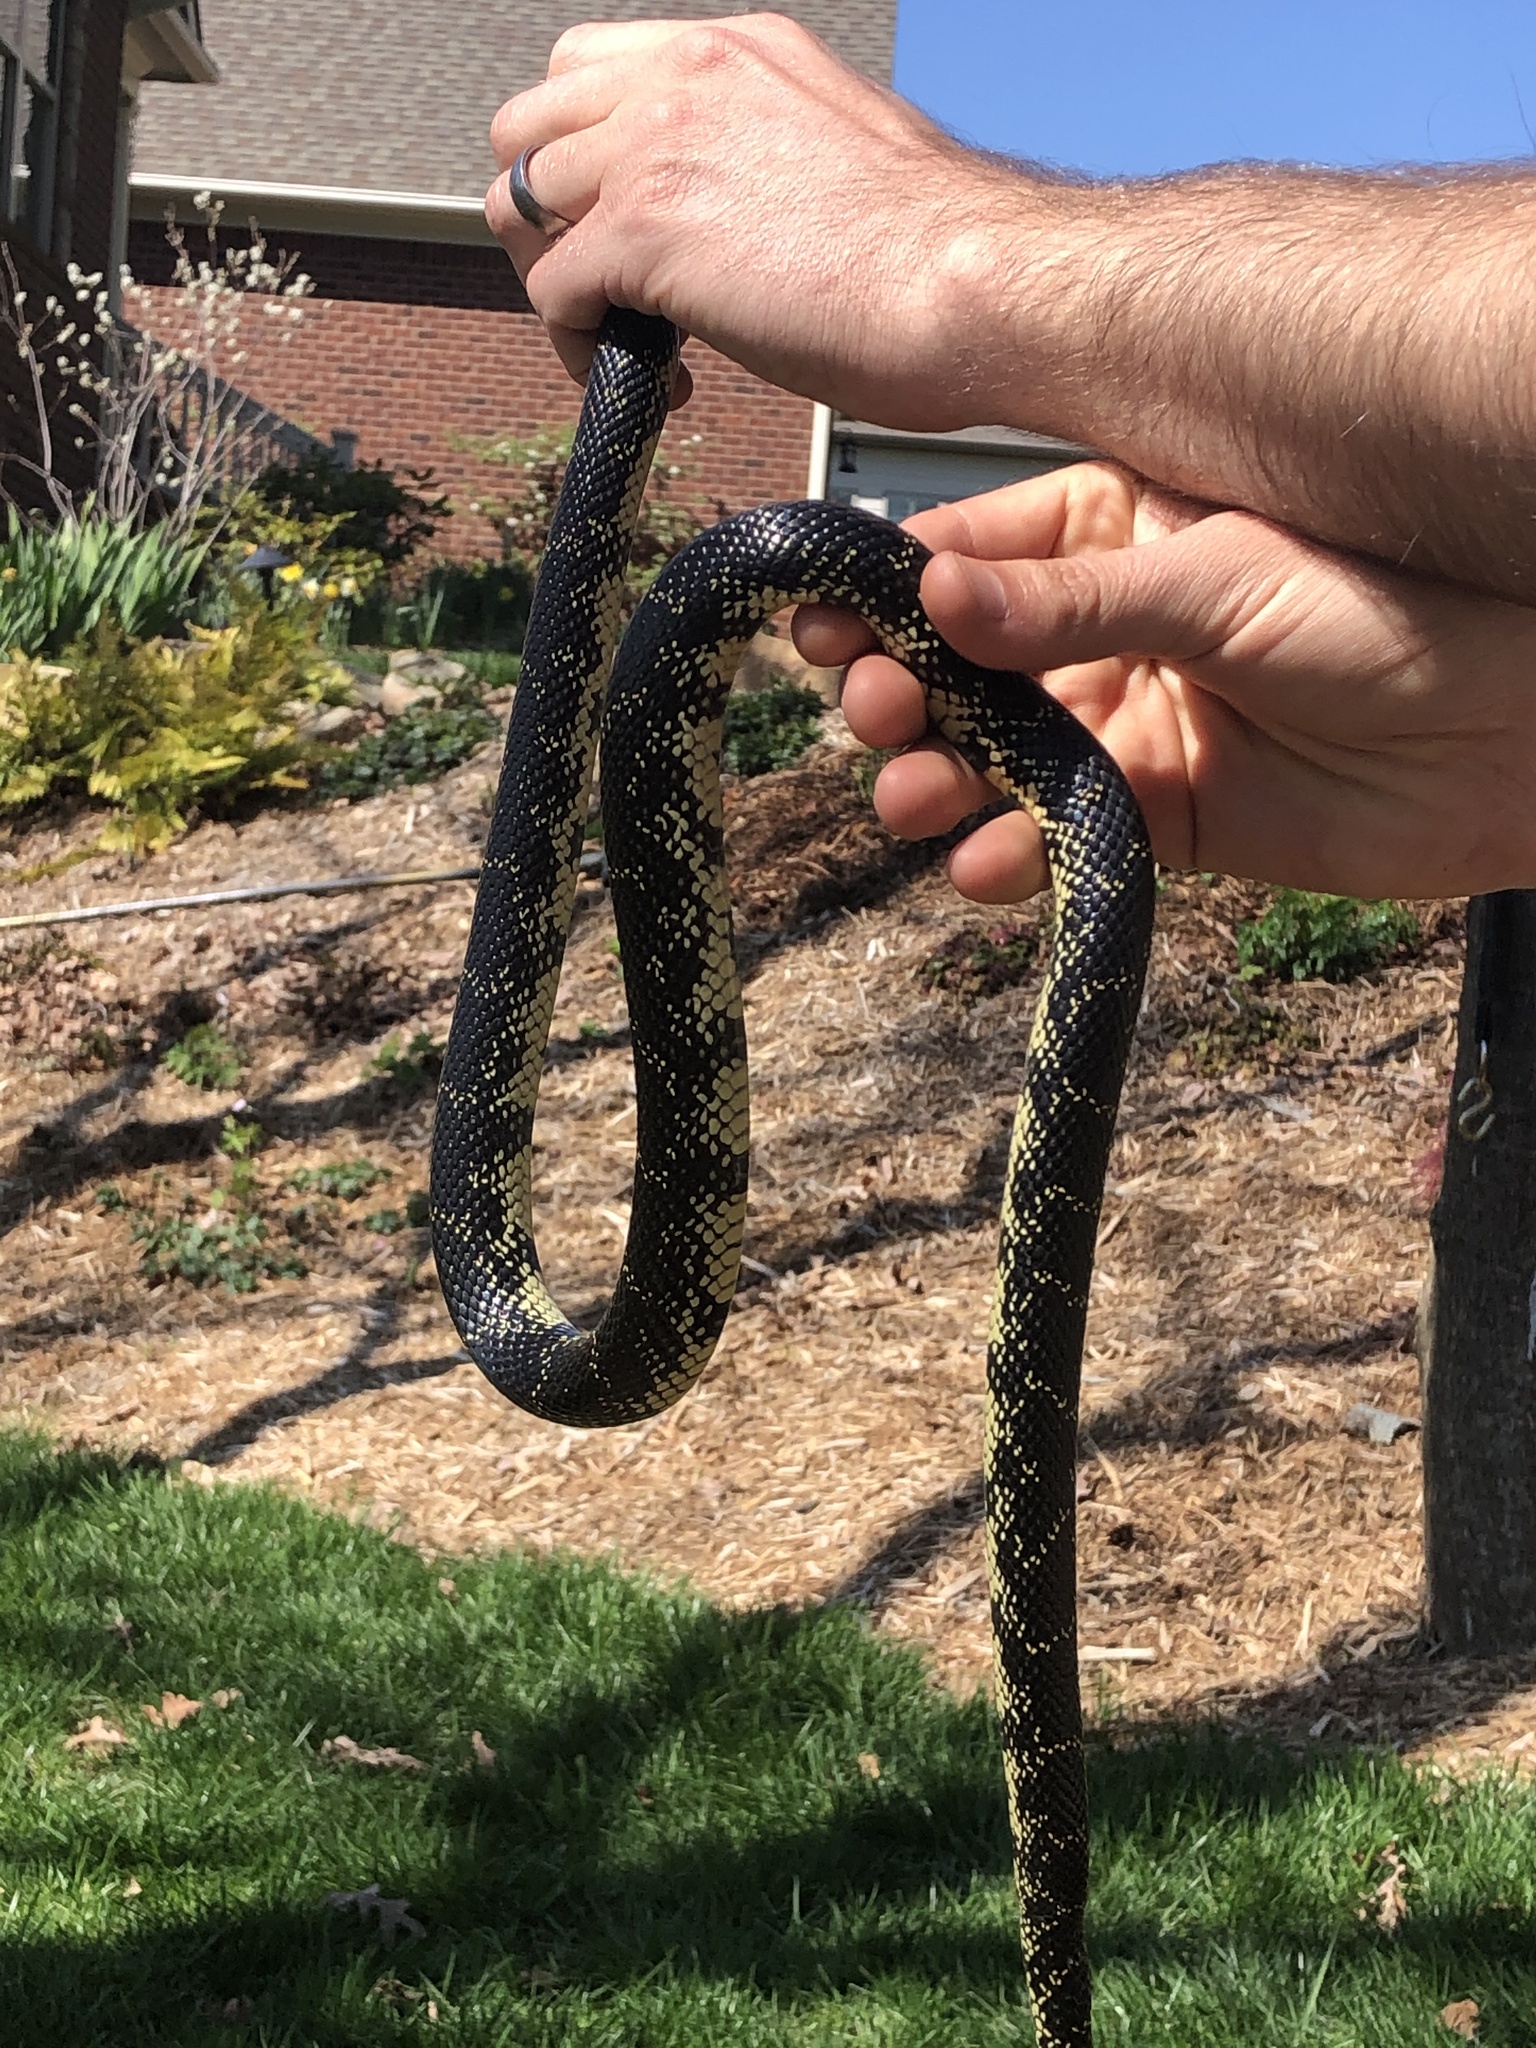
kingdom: Animalia
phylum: Chordata
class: Squamata
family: Colubridae
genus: Lampropeltis
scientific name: Lampropeltis nigra
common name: Black kingsnake
